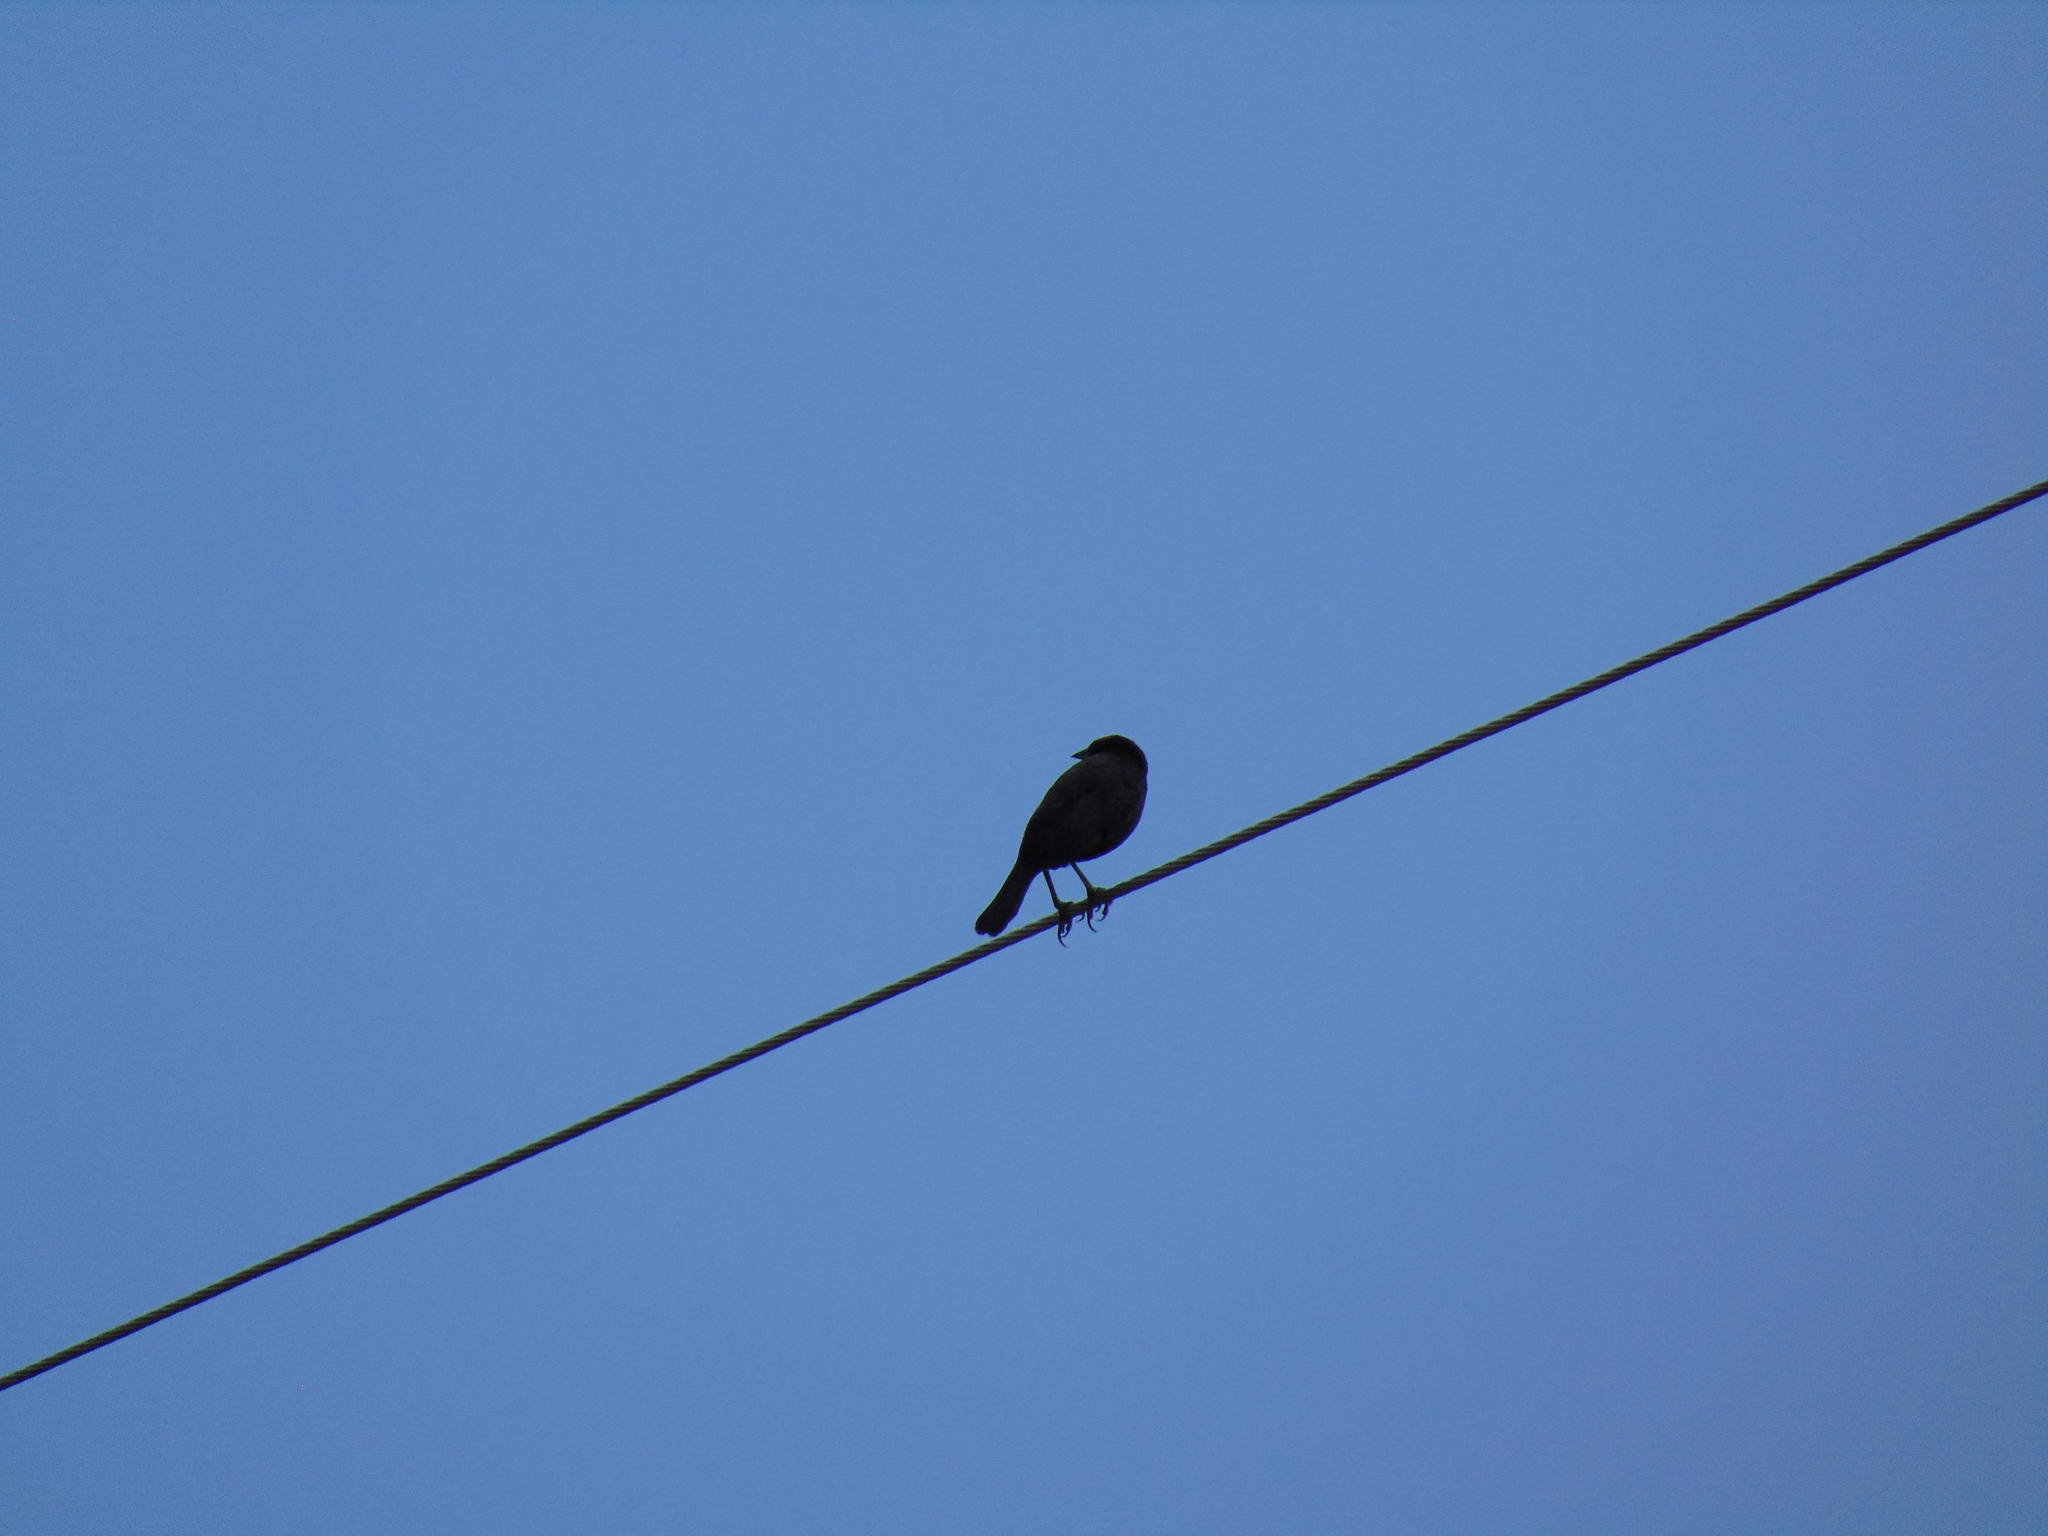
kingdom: Animalia
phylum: Chordata
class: Aves
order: Passeriformes
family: Icteridae
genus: Chrysomus
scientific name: Chrysomus ruficapillus
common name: Chestnut-capped blackbird
